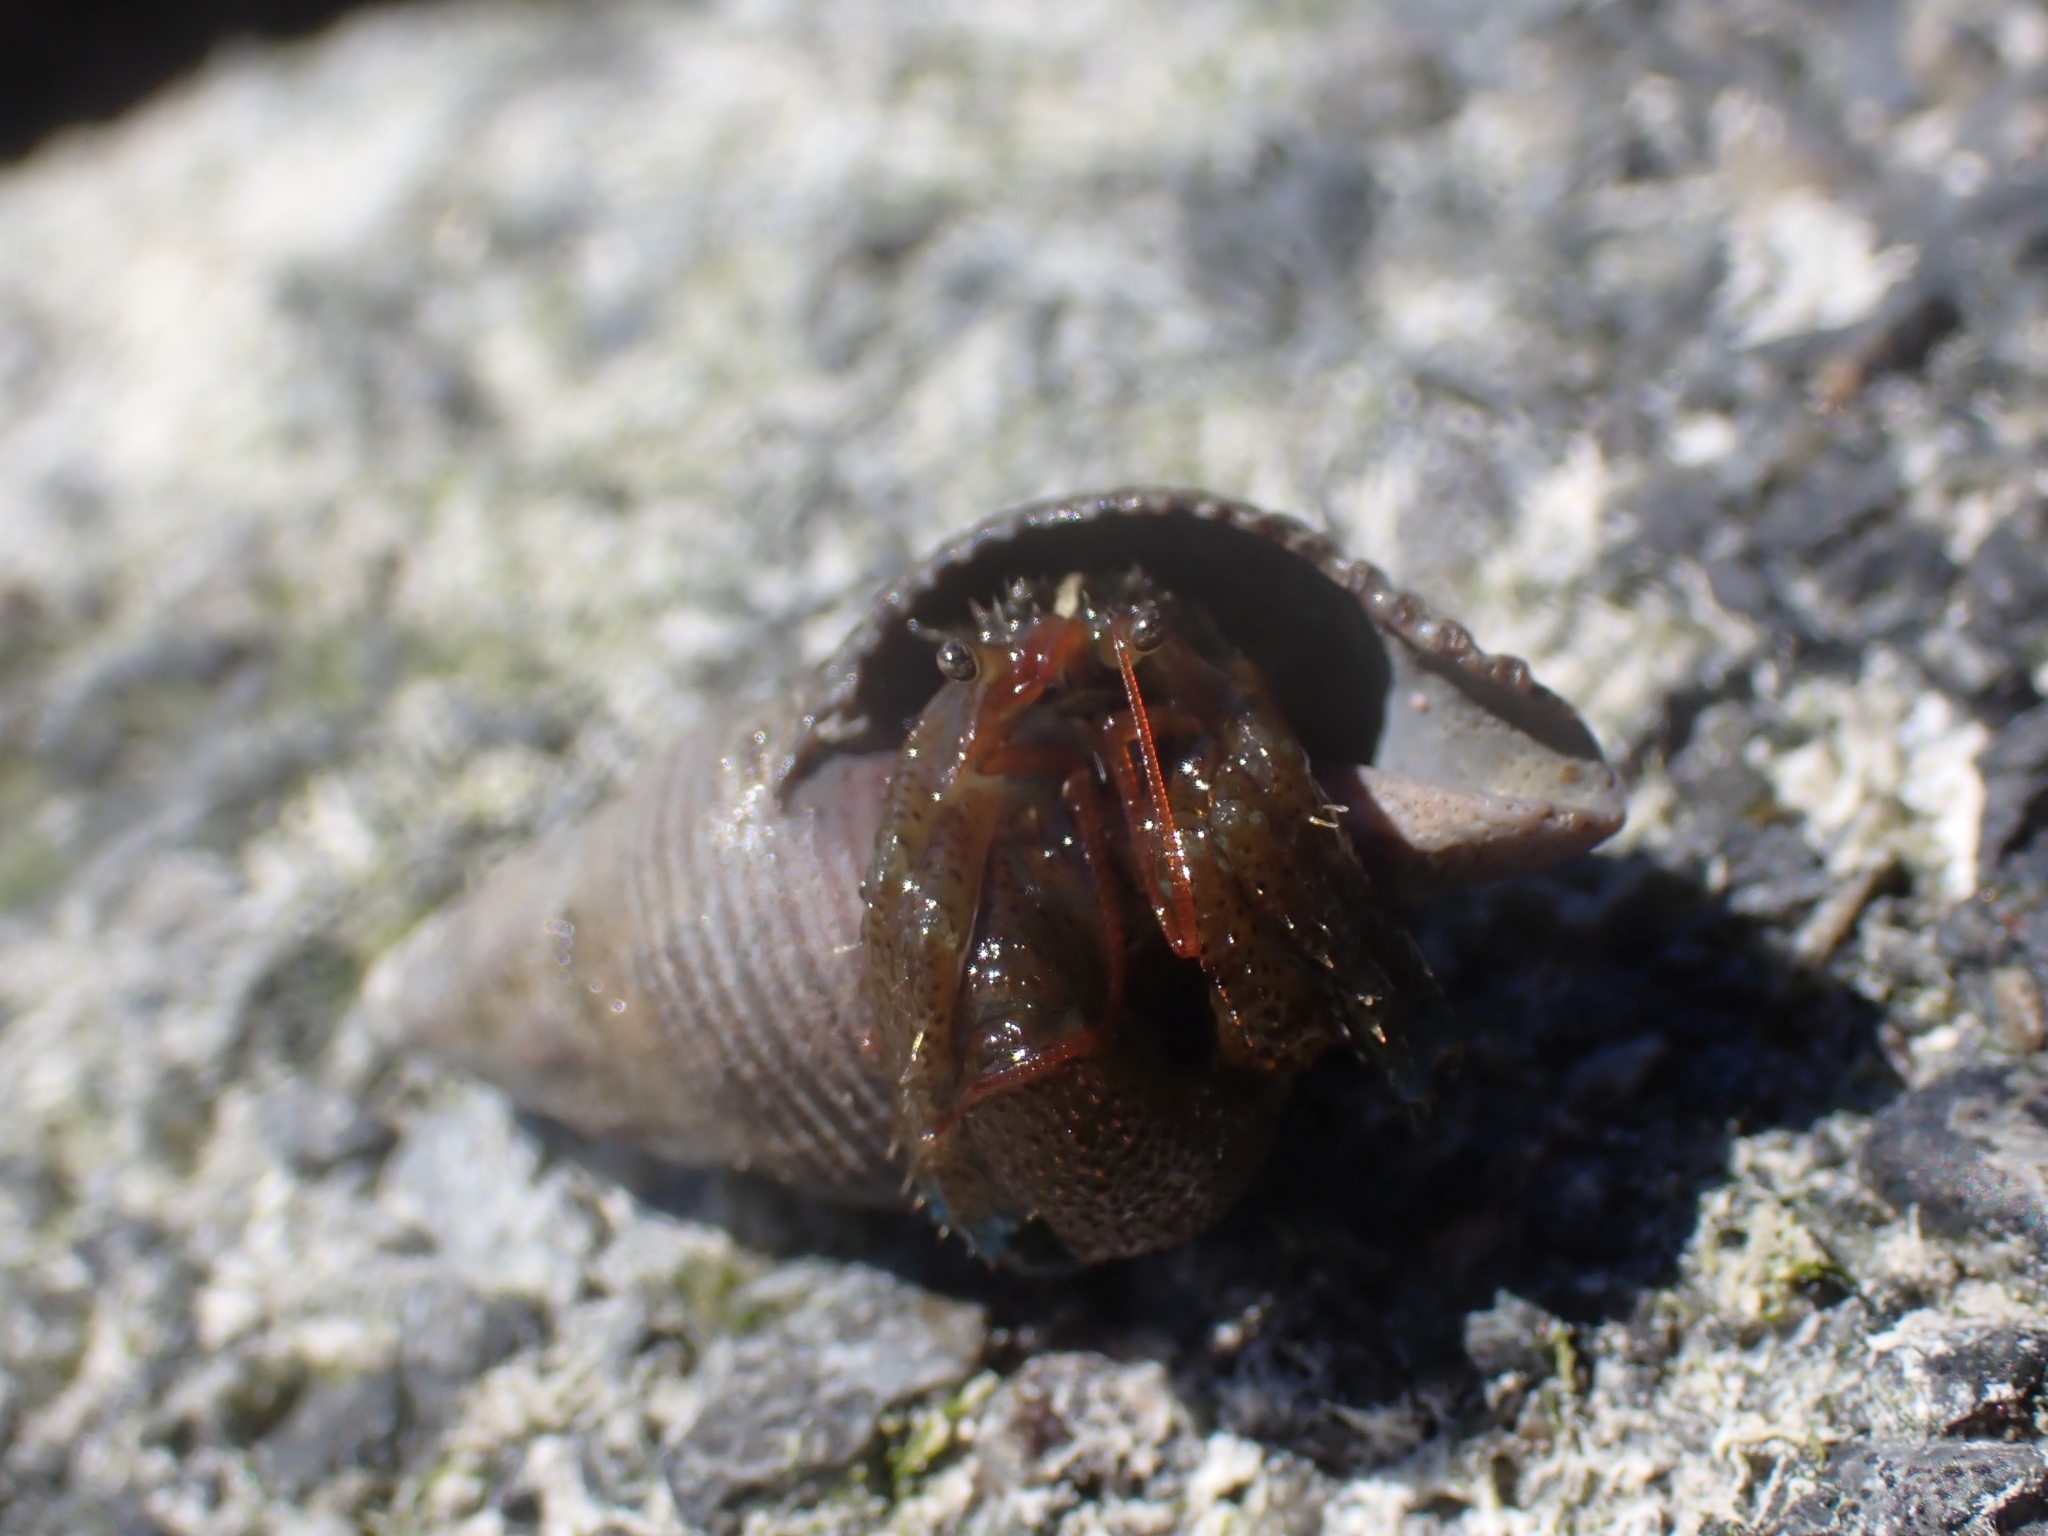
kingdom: Animalia
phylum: Arthropoda
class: Malacostraca
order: Decapoda
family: Paguridae
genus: Pagurus
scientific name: Pagurus samuelis
